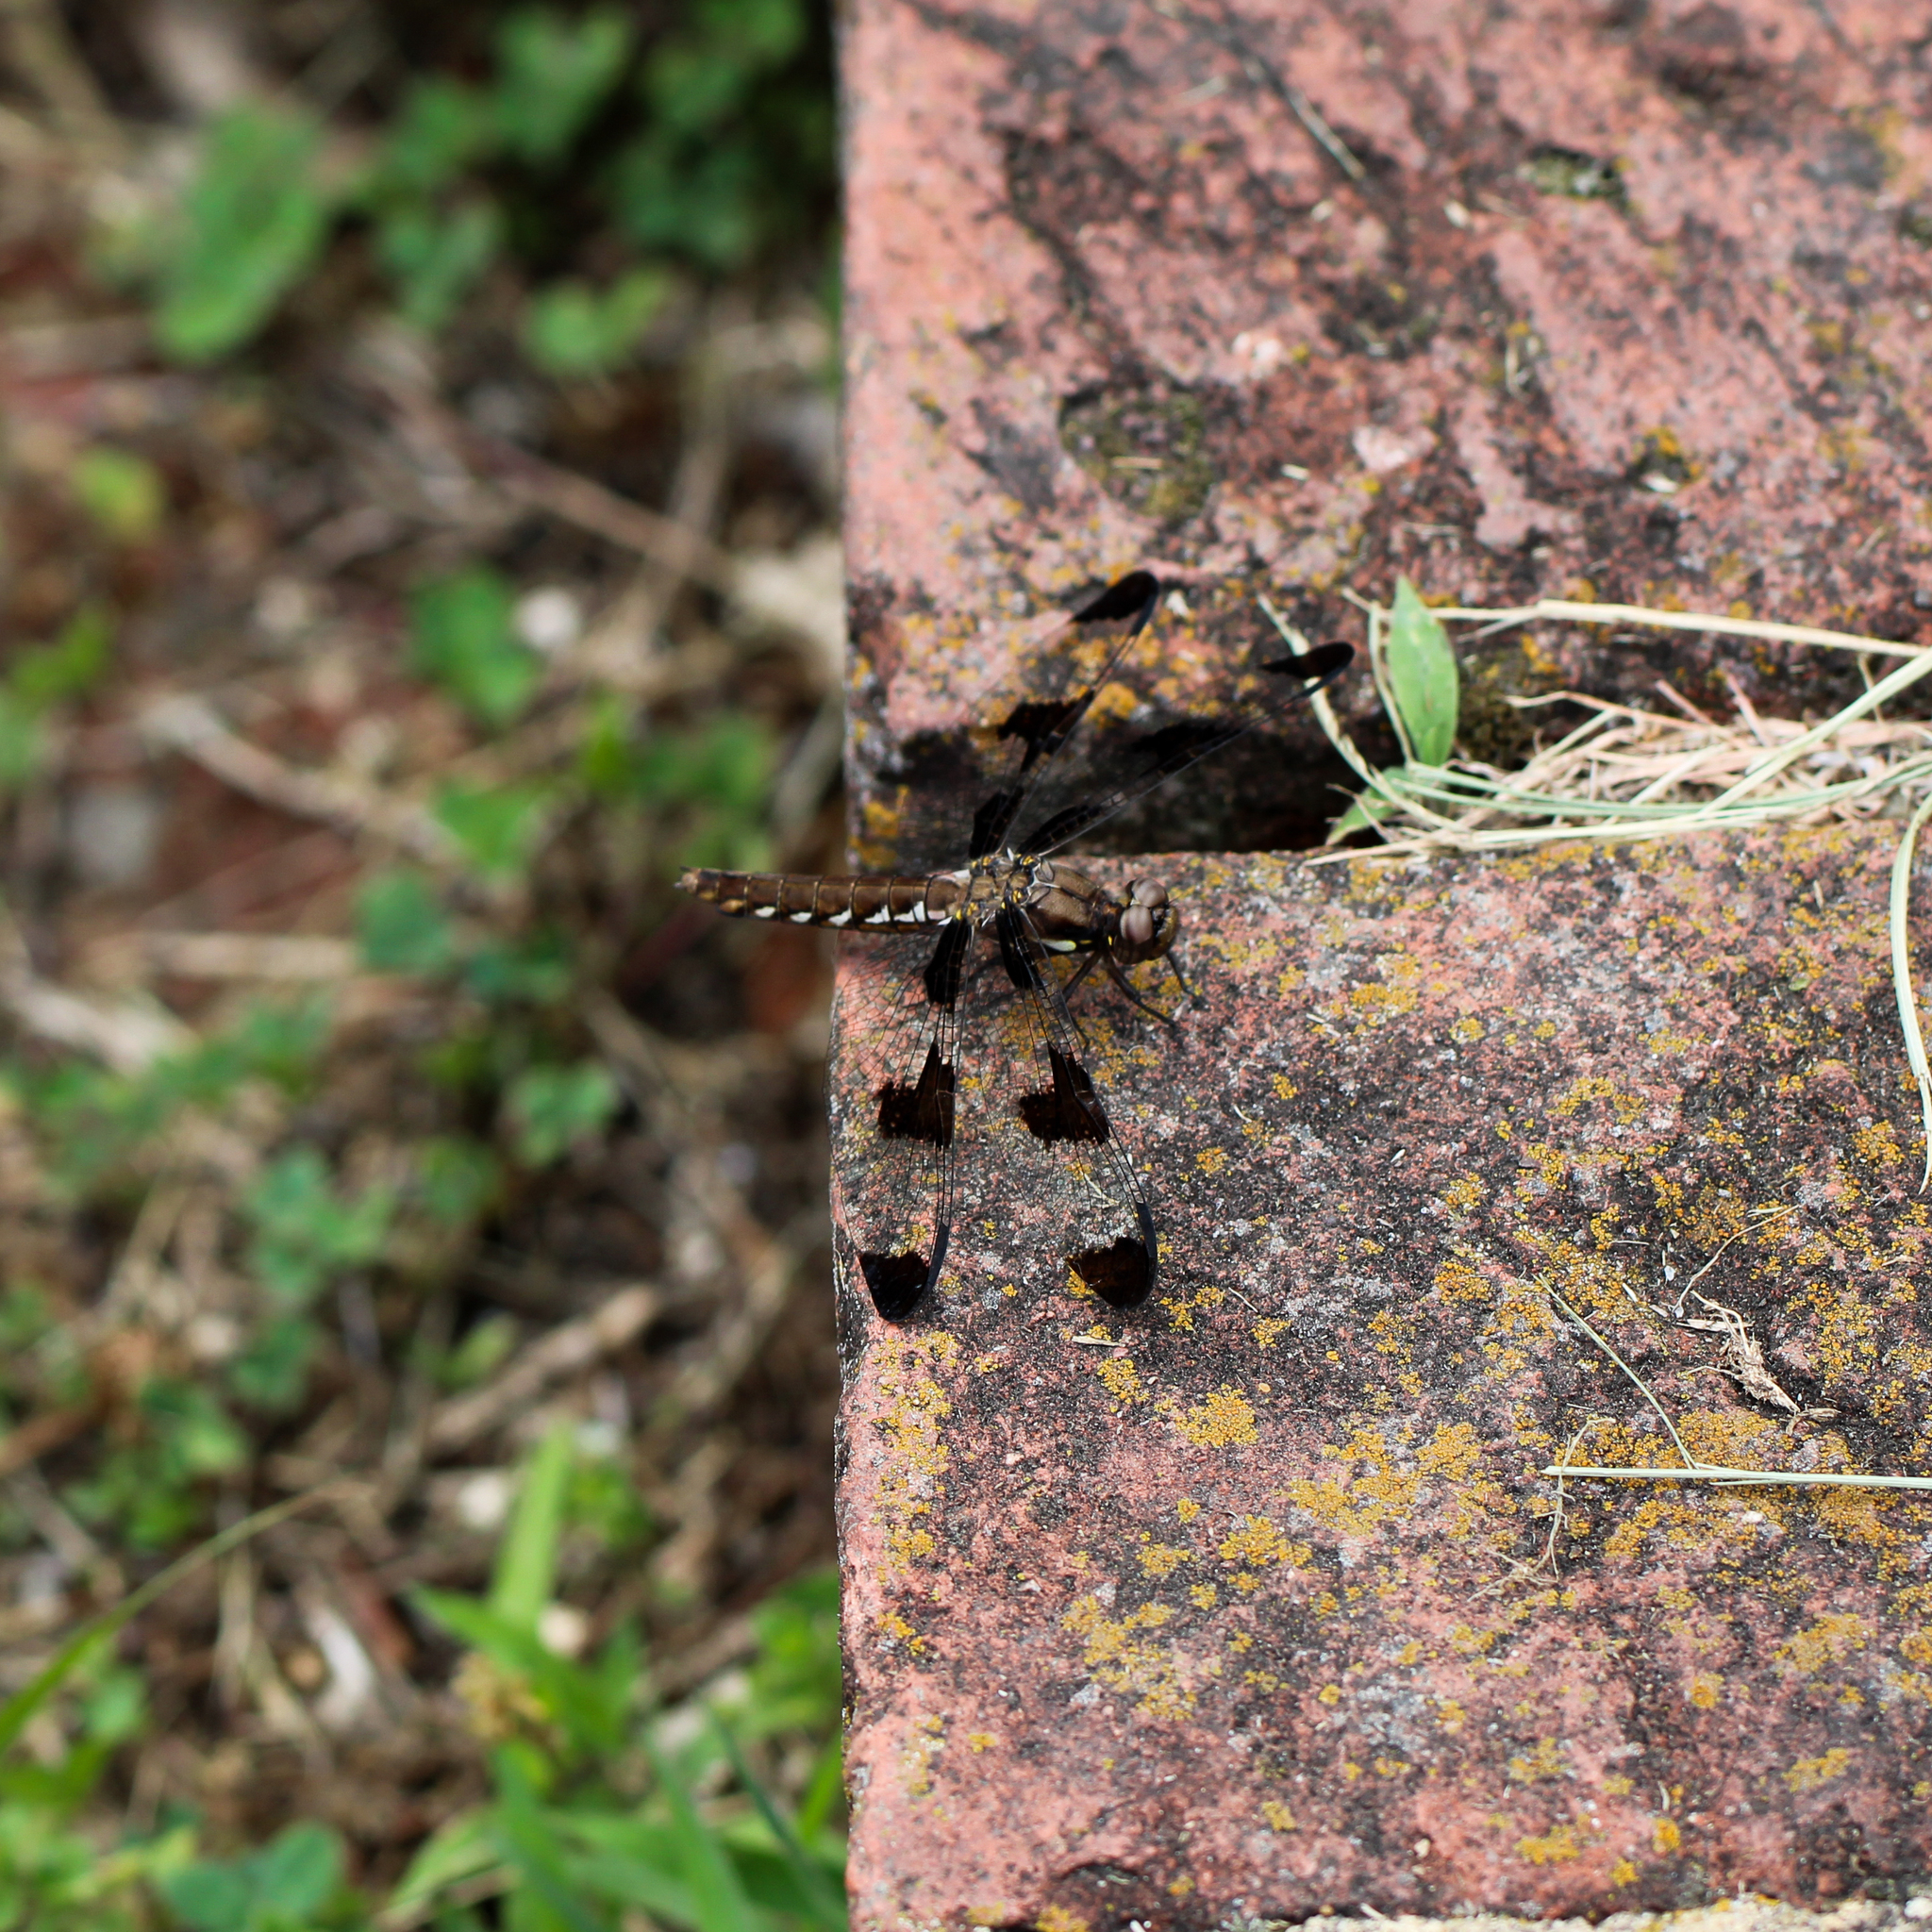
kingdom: Animalia
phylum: Arthropoda
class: Insecta
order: Odonata
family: Libellulidae
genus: Plathemis
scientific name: Plathemis lydia
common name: Common whitetail
